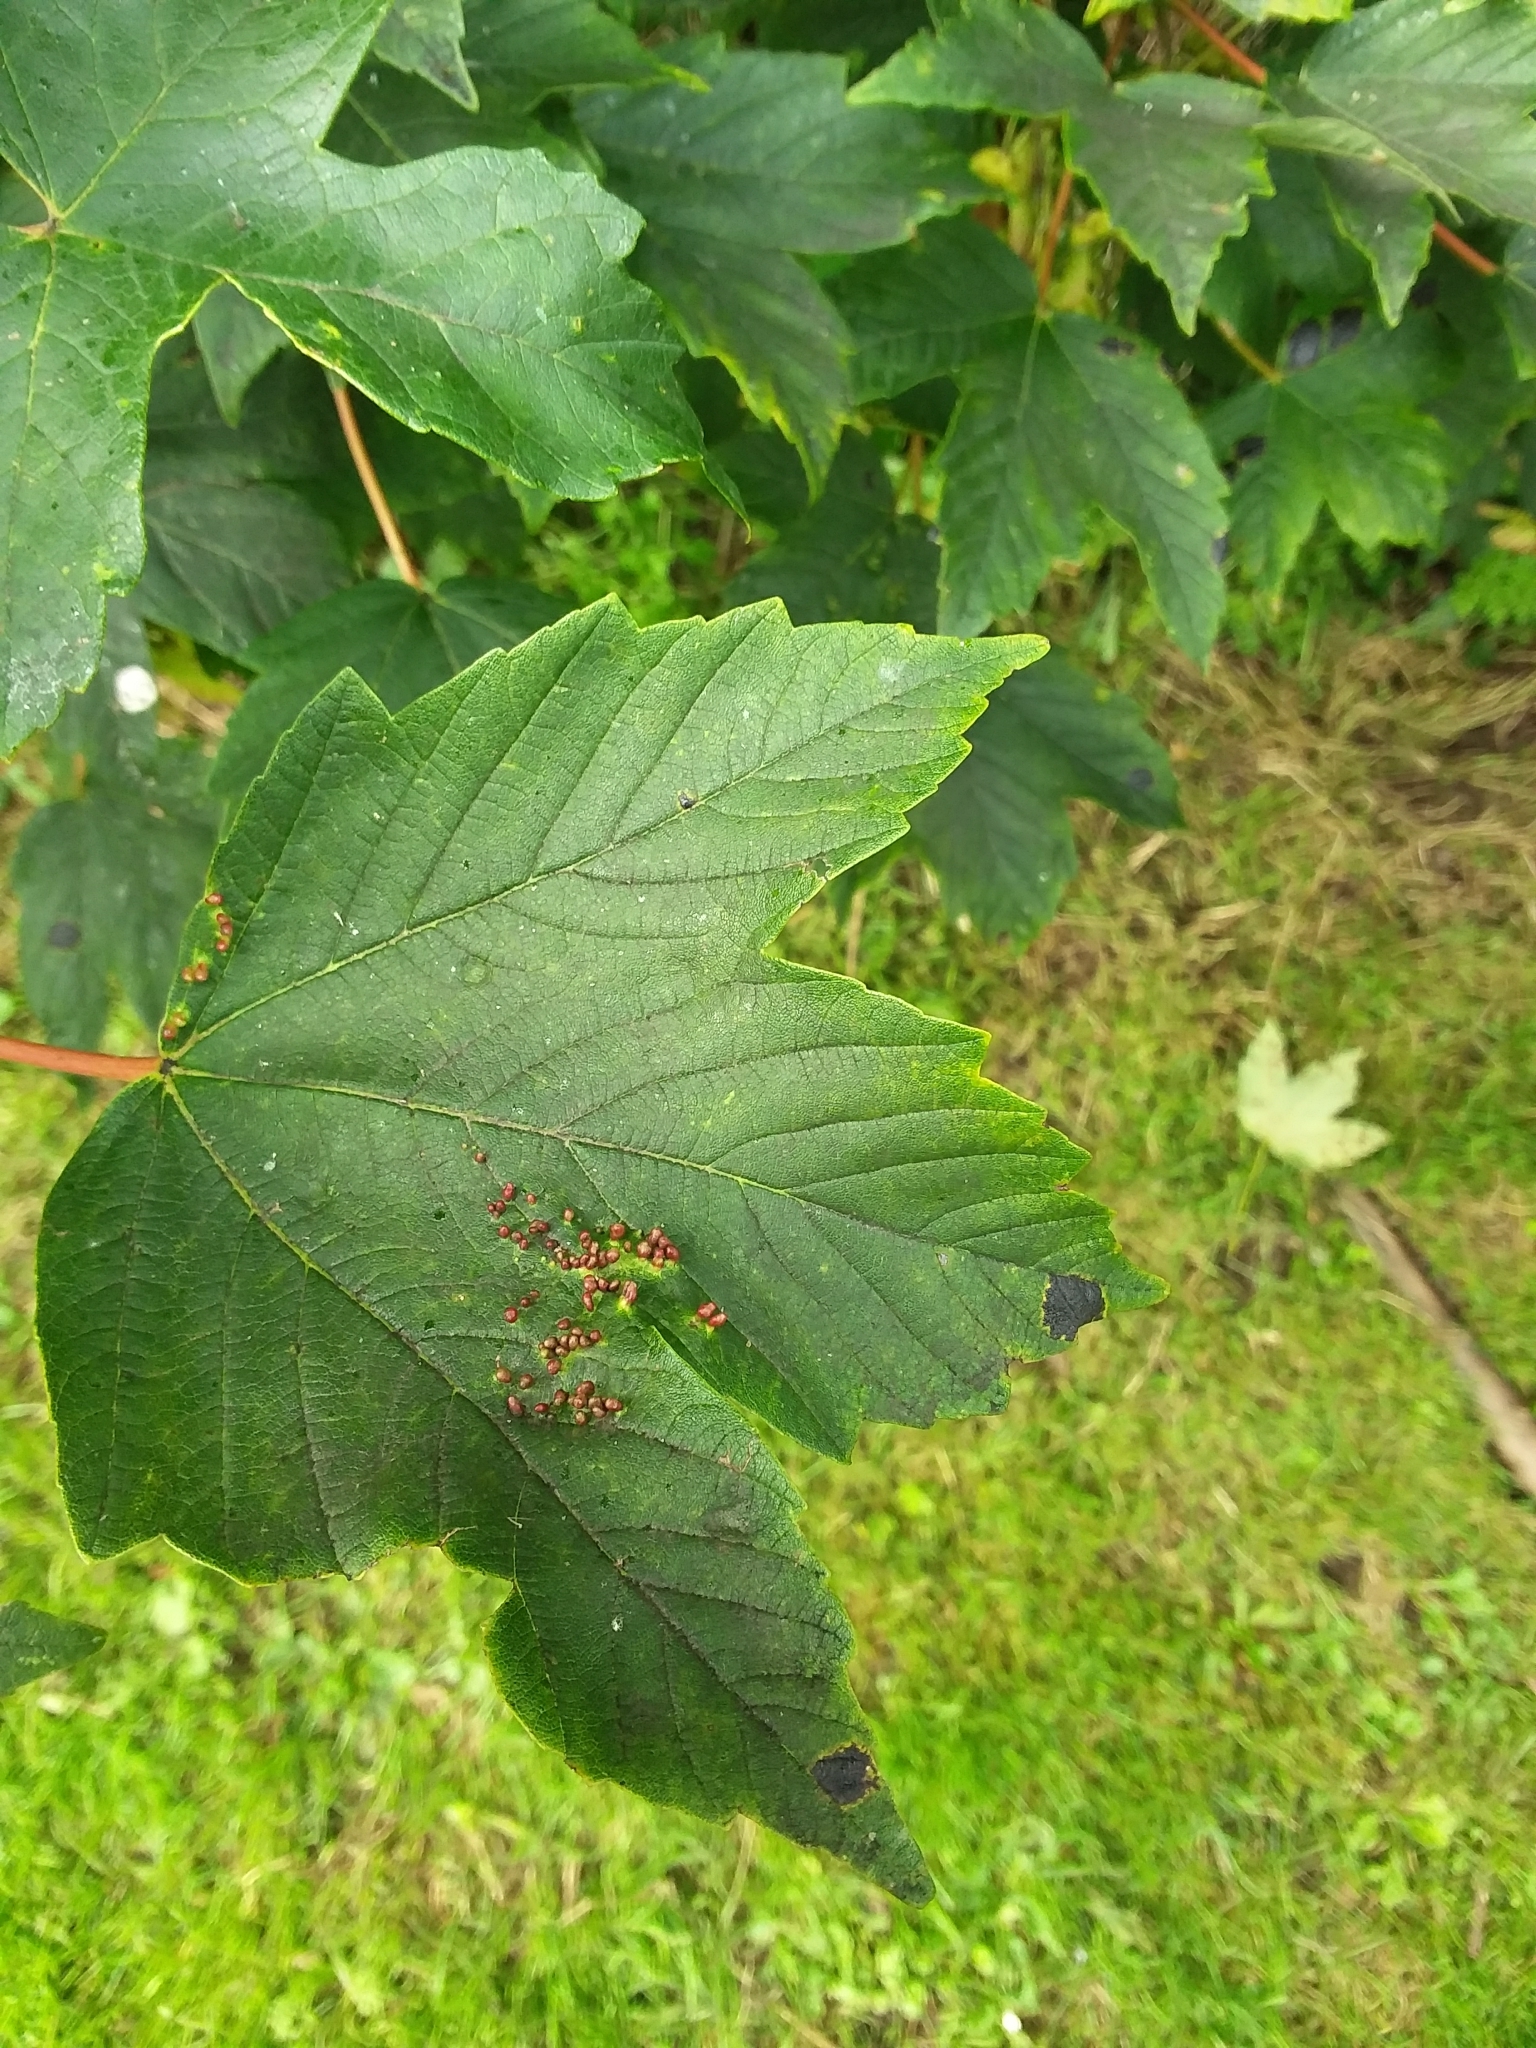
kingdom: Animalia
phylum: Arthropoda
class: Arachnida
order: Trombidiformes
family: Eriophyidae
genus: Aceria
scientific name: Aceria myriadeum
